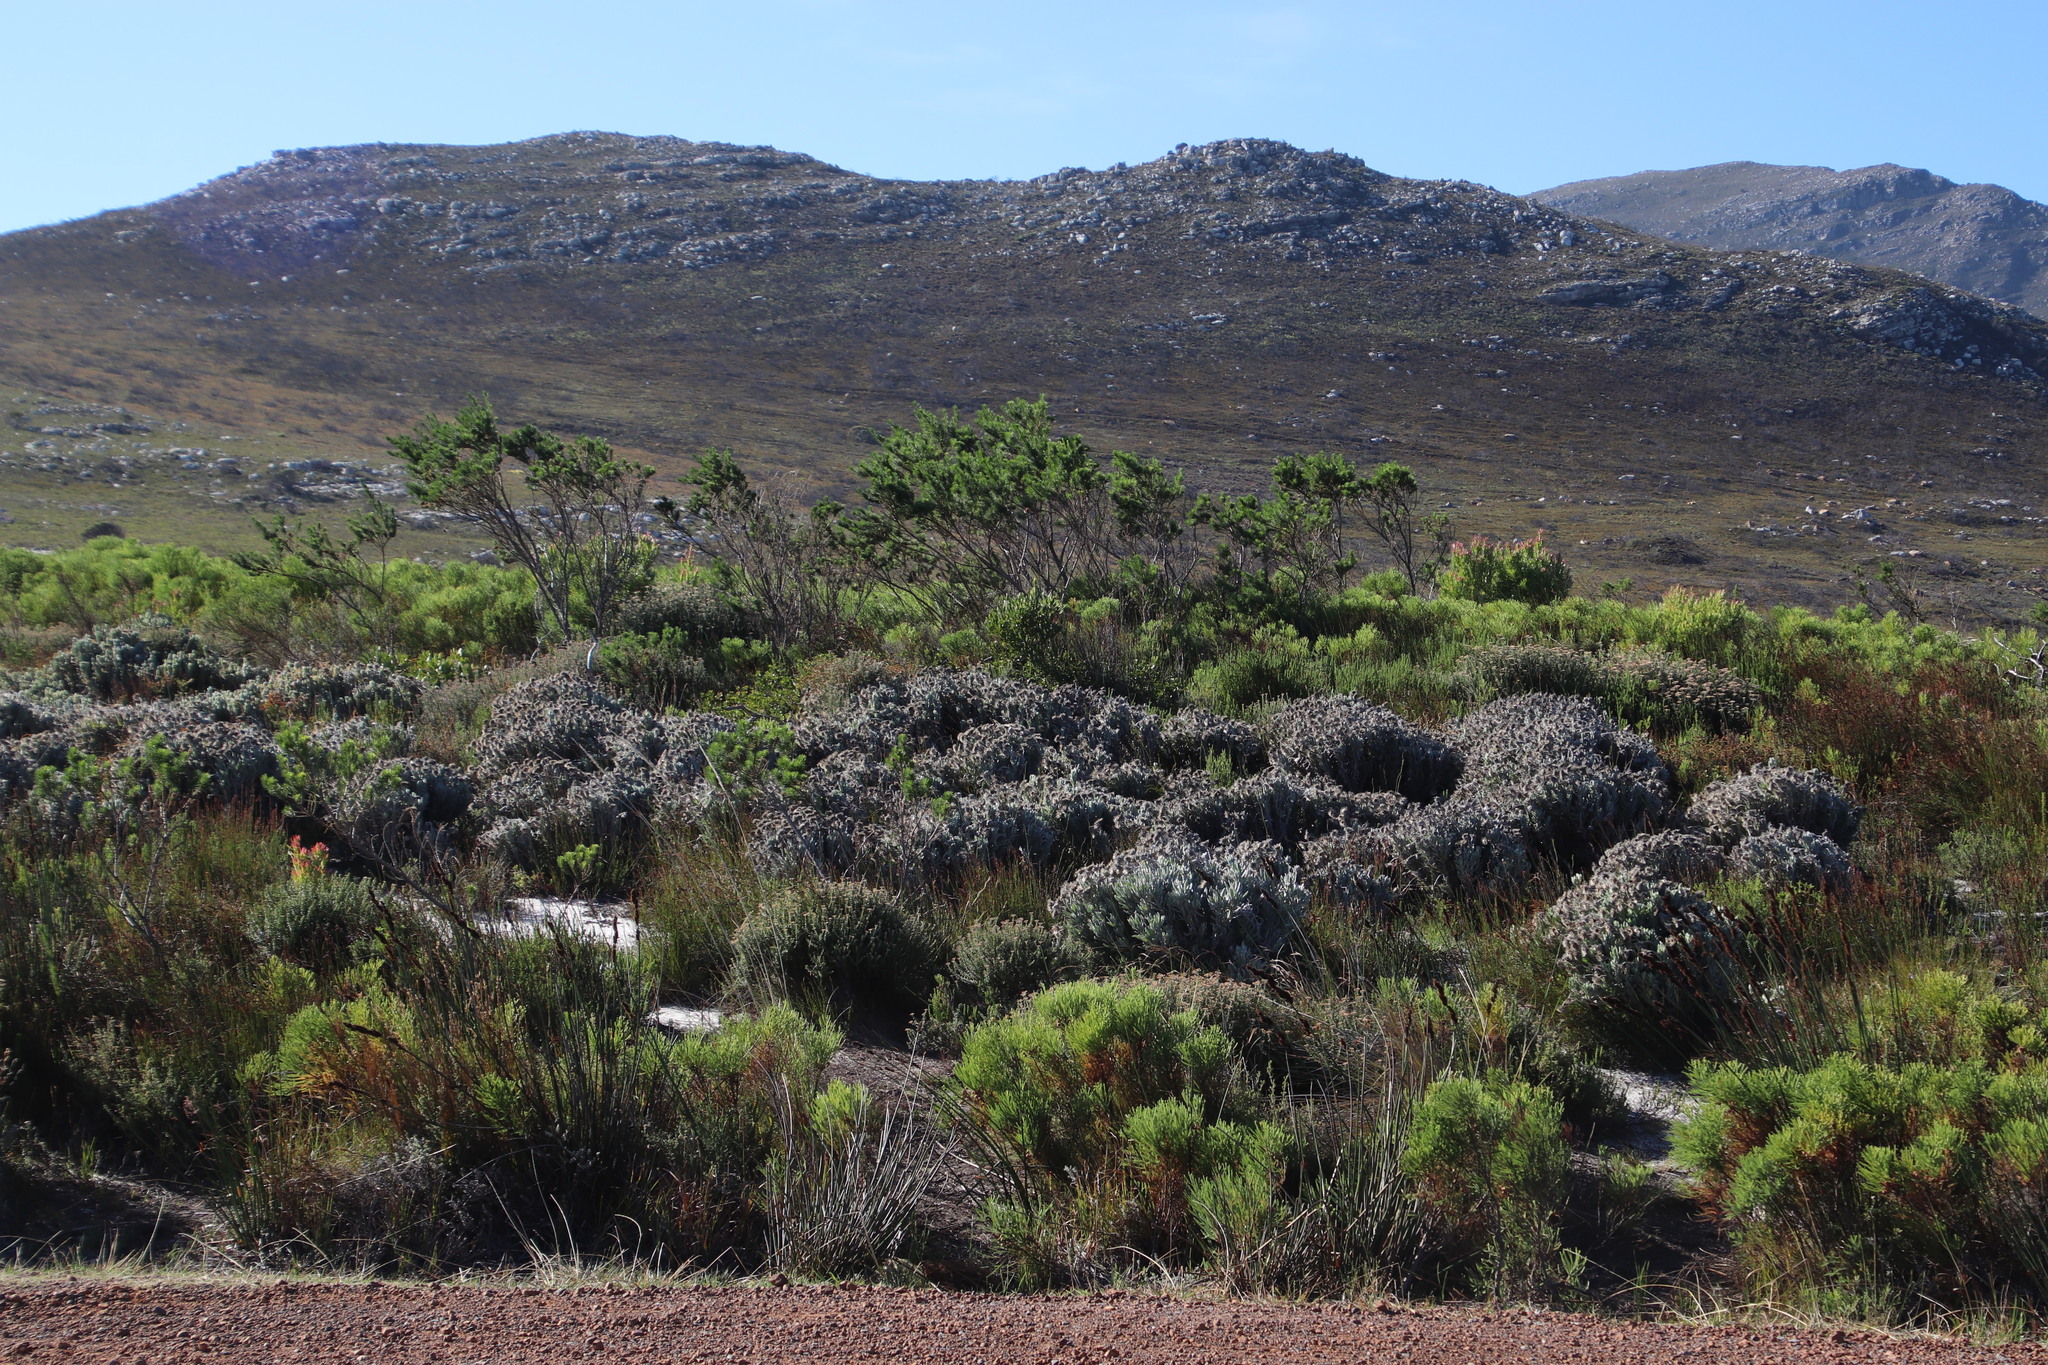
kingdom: Plantae
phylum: Tracheophyta
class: Magnoliopsida
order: Asterales
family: Asteraceae
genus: Syncarpha
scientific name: Syncarpha vestita
